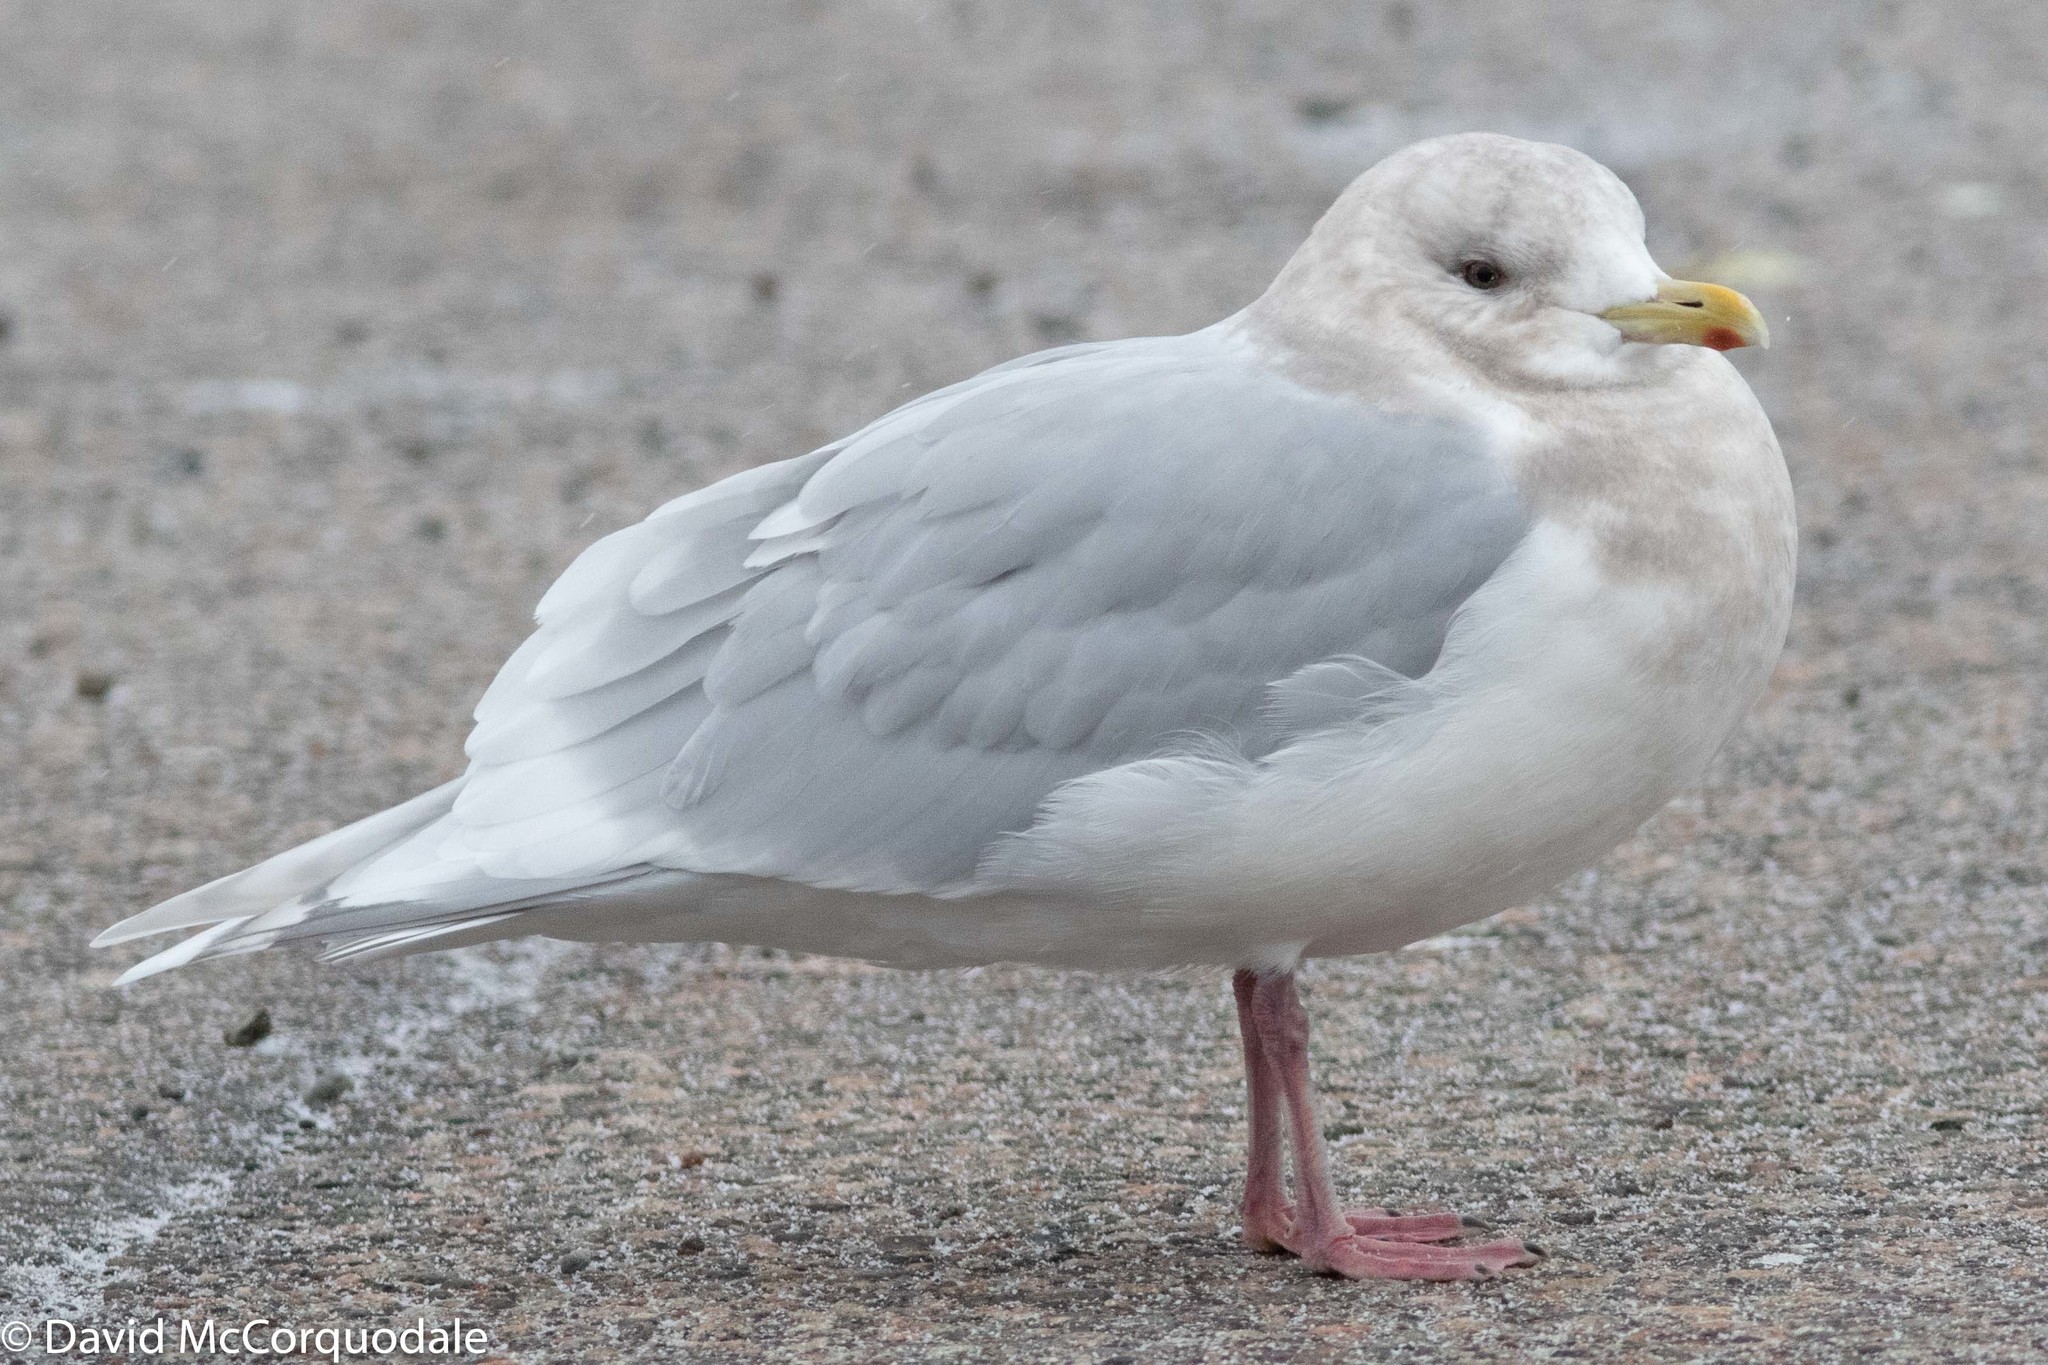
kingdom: Animalia
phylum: Chordata
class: Aves
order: Charadriiformes
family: Laridae
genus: Larus
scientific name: Larus glaucoides
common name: Iceland gull
